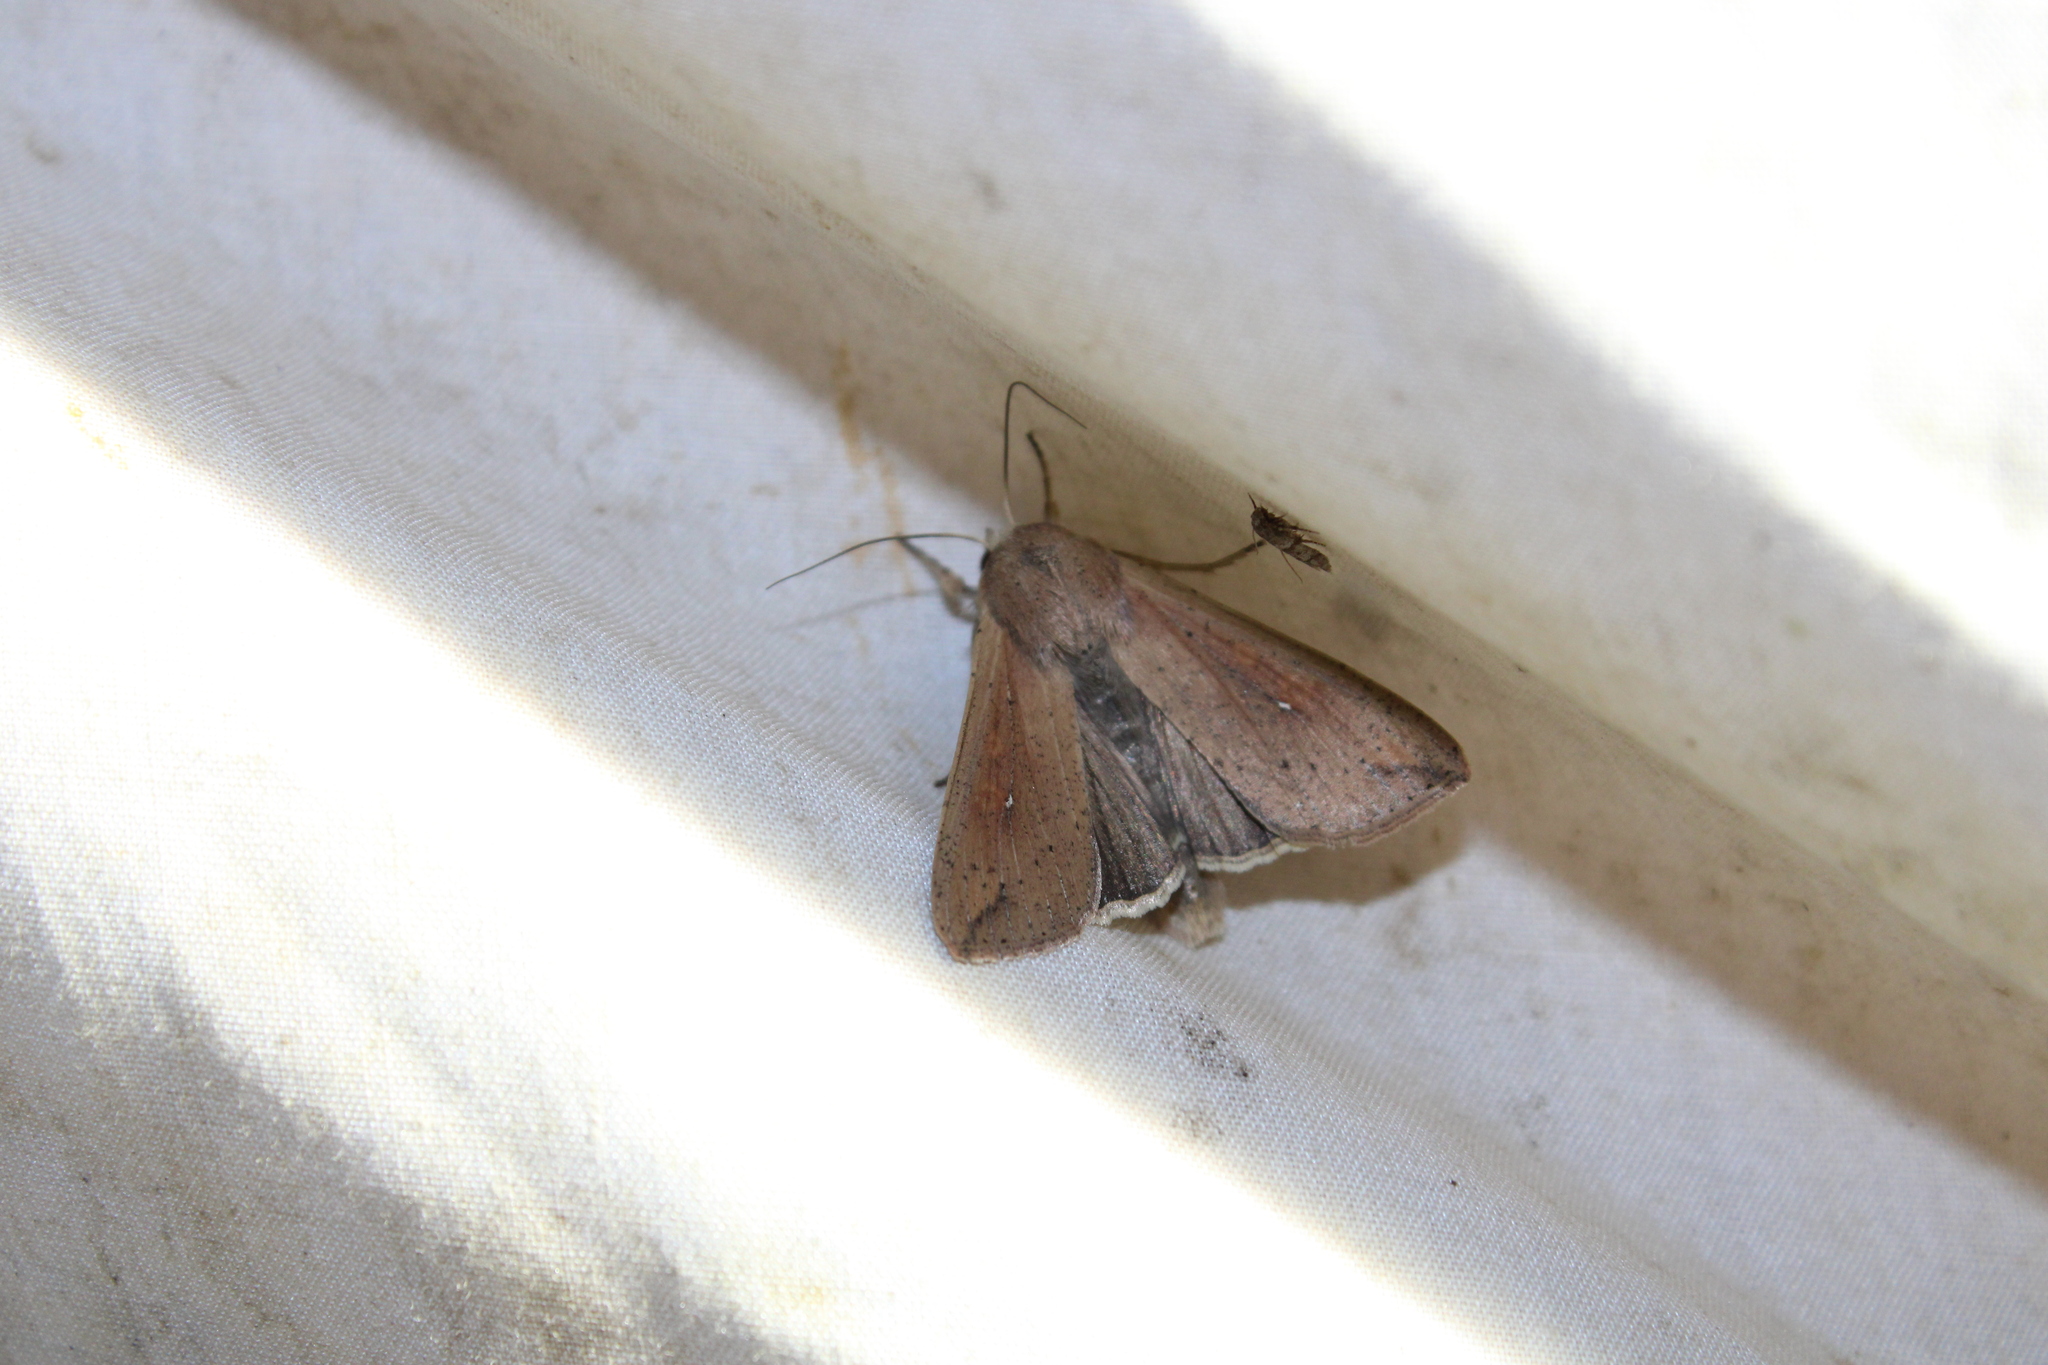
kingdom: Animalia
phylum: Arthropoda
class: Insecta
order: Lepidoptera
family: Noctuidae
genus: Mythimna
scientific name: Mythimna unipuncta
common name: White-speck
